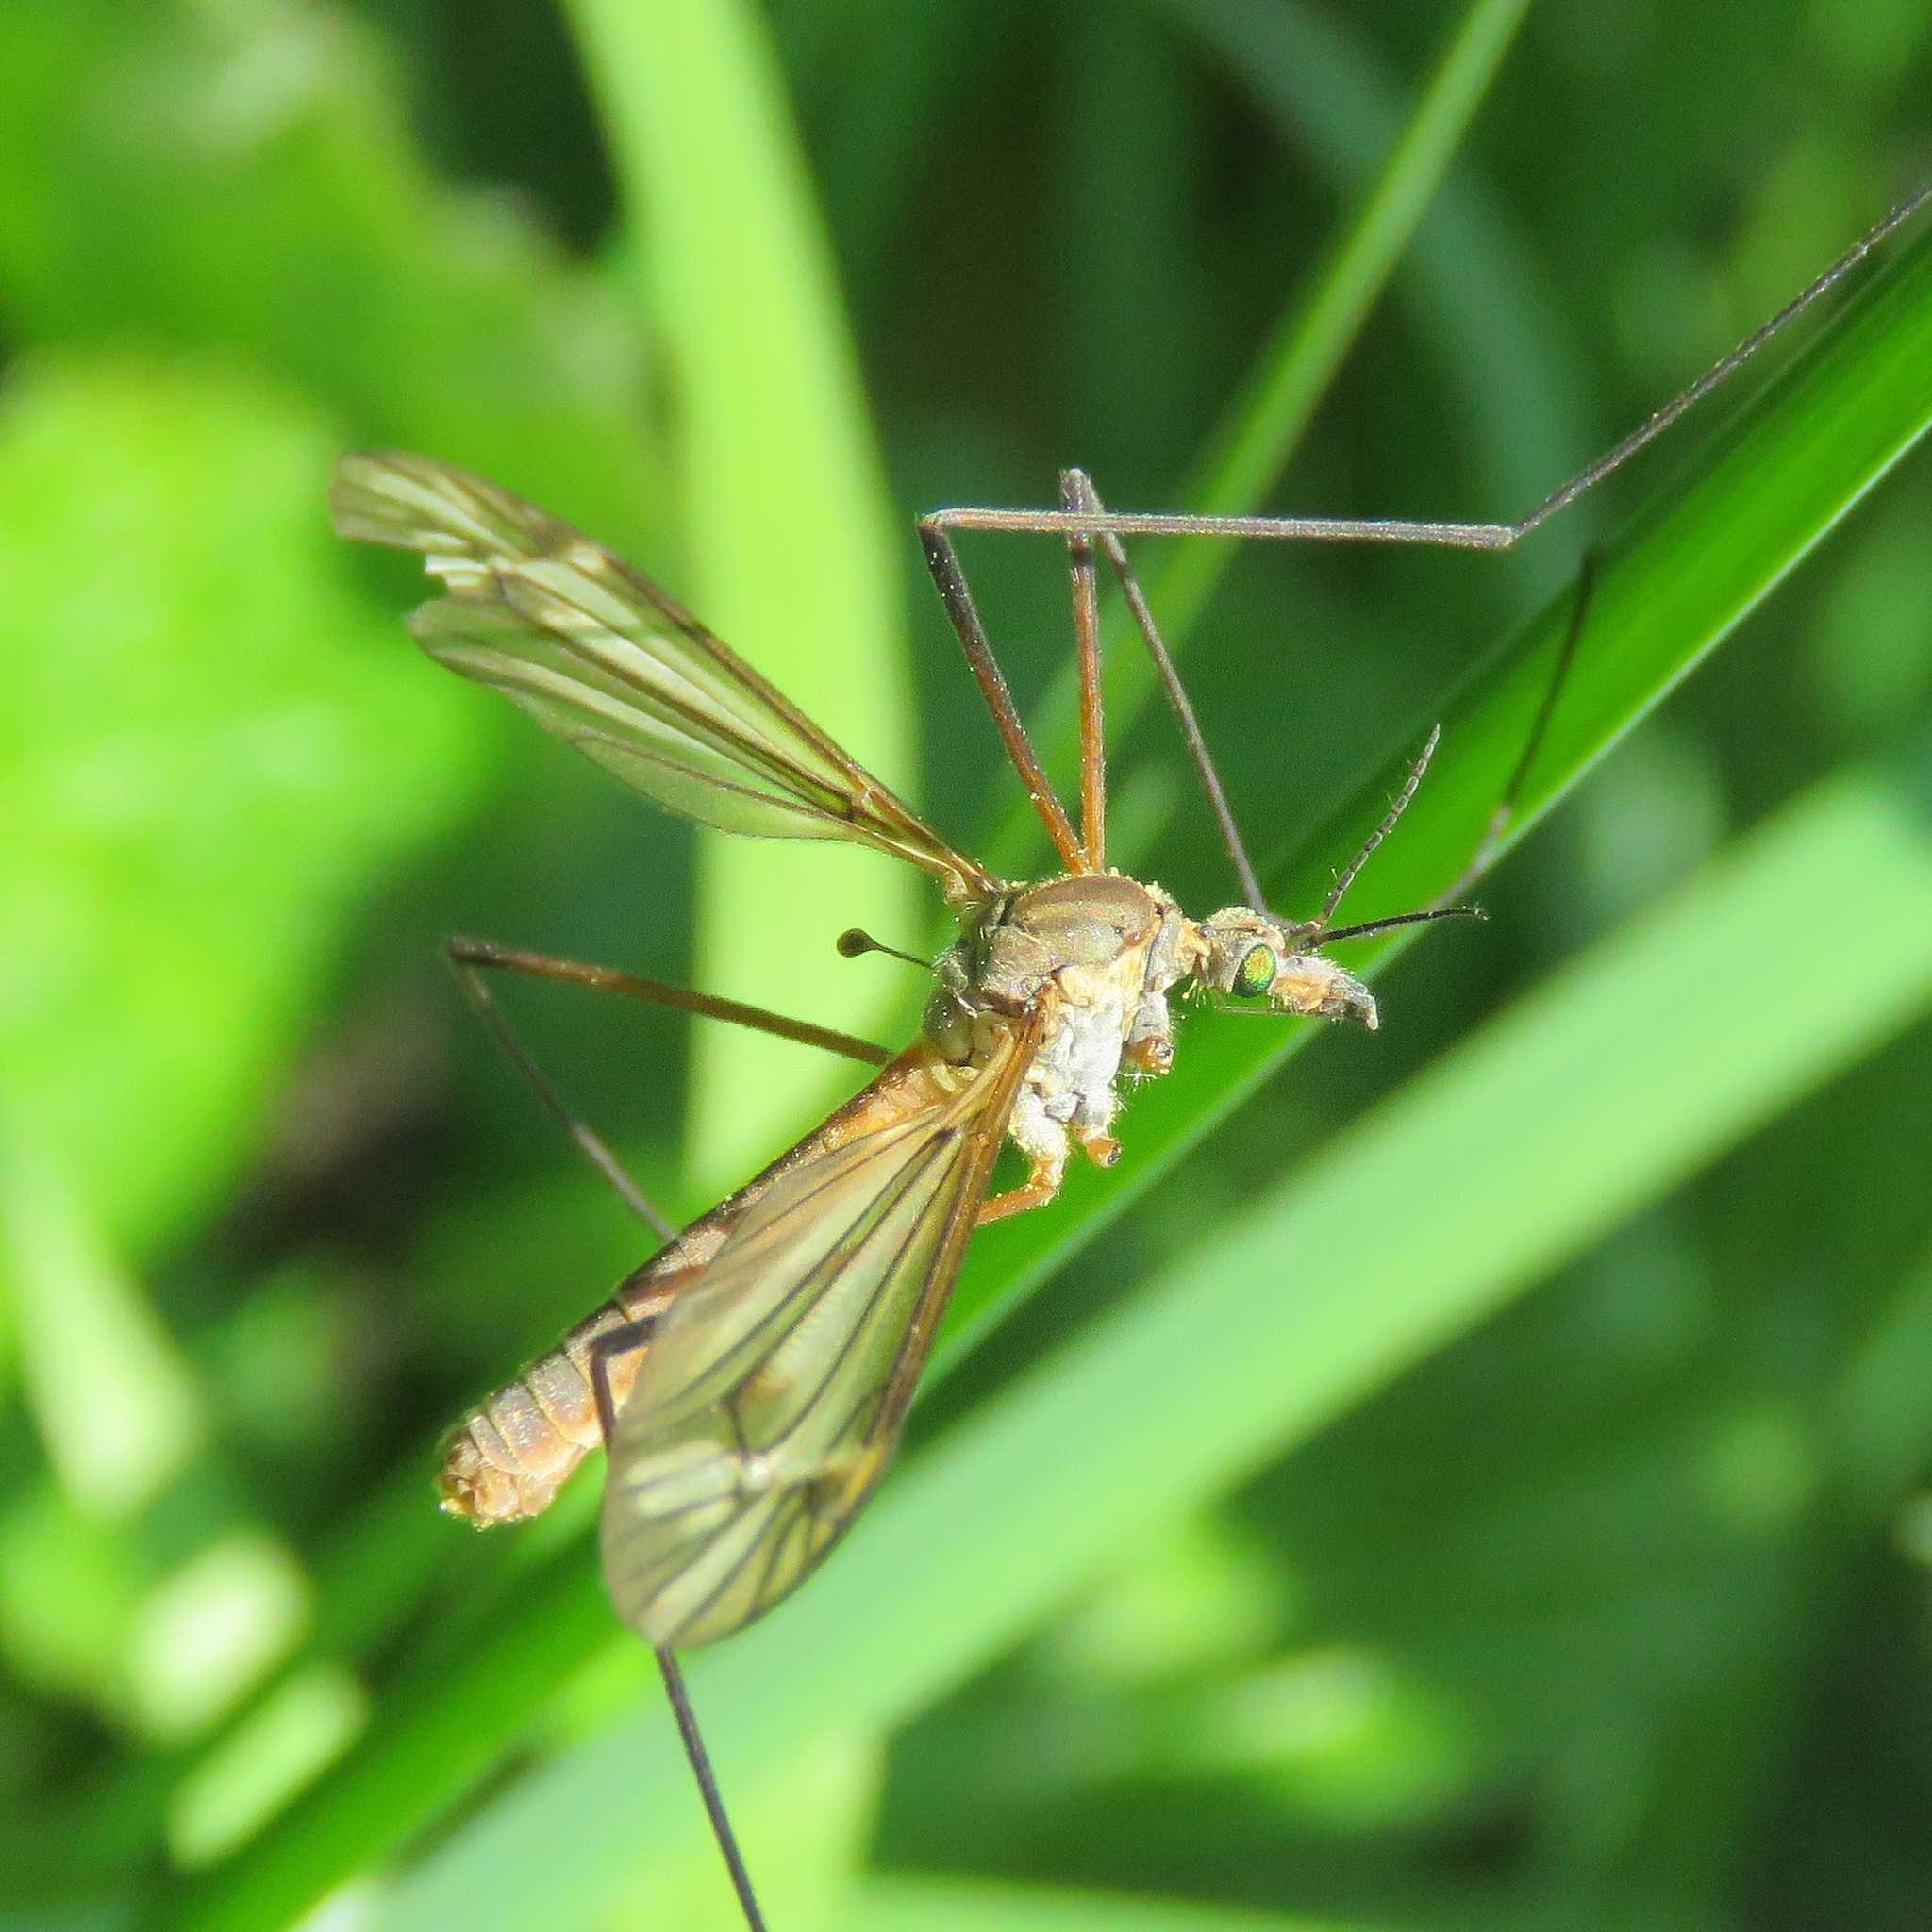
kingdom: Animalia
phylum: Arthropoda
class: Insecta
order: Diptera
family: Tipulidae
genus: Tipula
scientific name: Tipula vernalis
